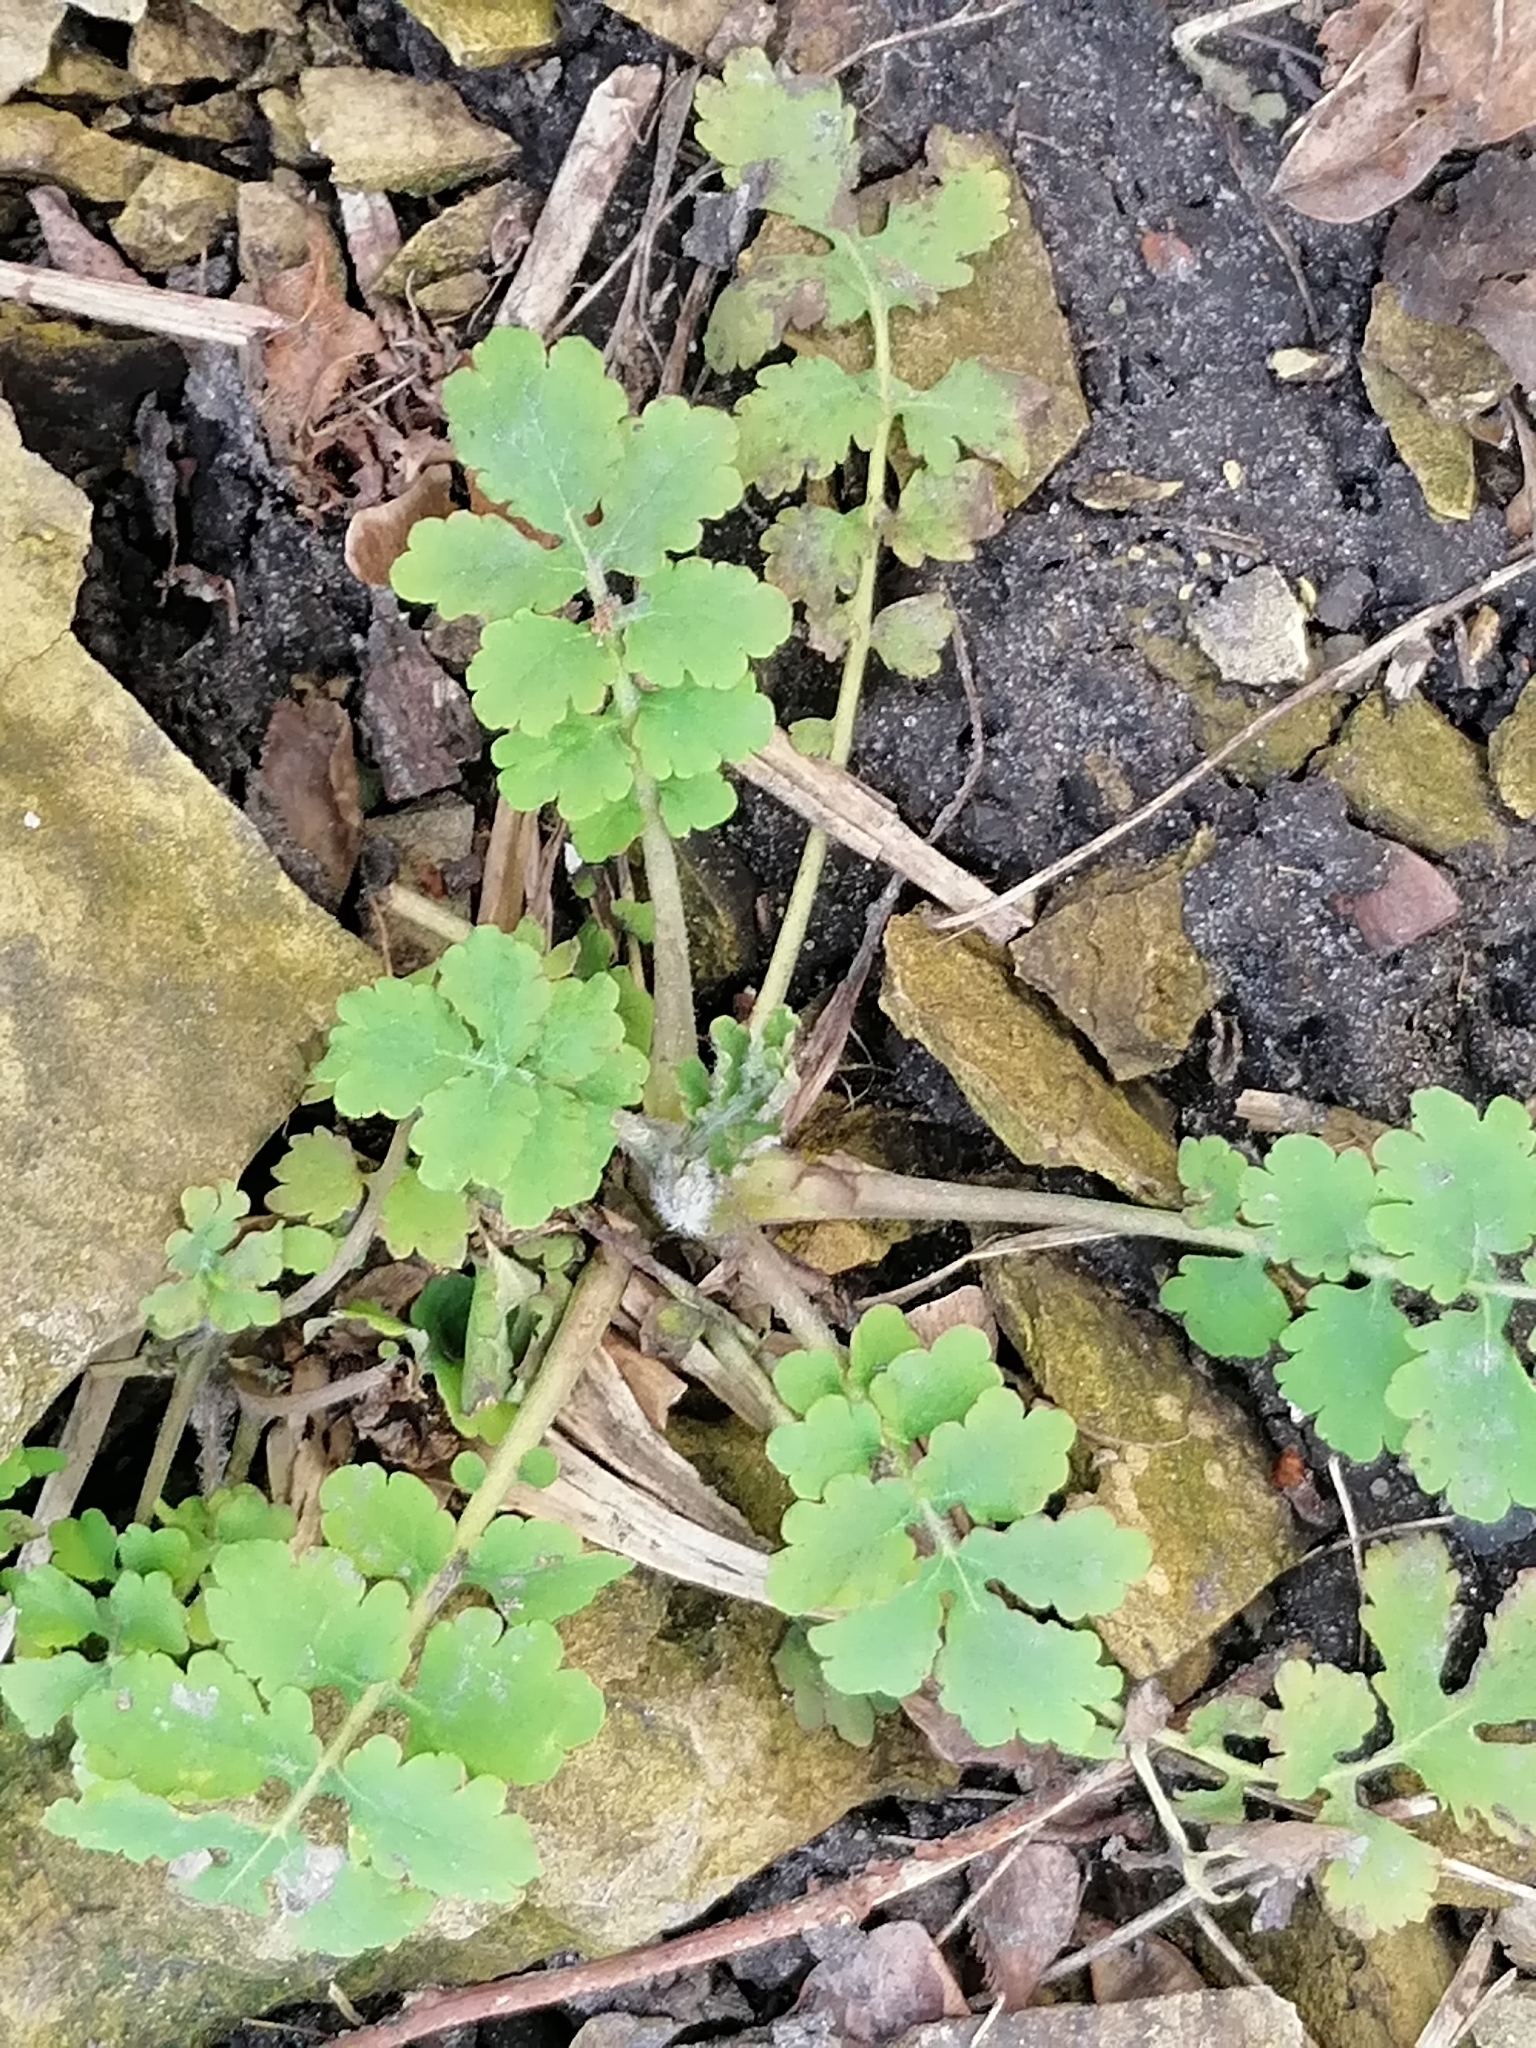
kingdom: Plantae
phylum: Tracheophyta
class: Magnoliopsida
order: Ranunculales
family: Papaveraceae
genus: Chelidonium
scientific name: Chelidonium majus
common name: Greater celandine
